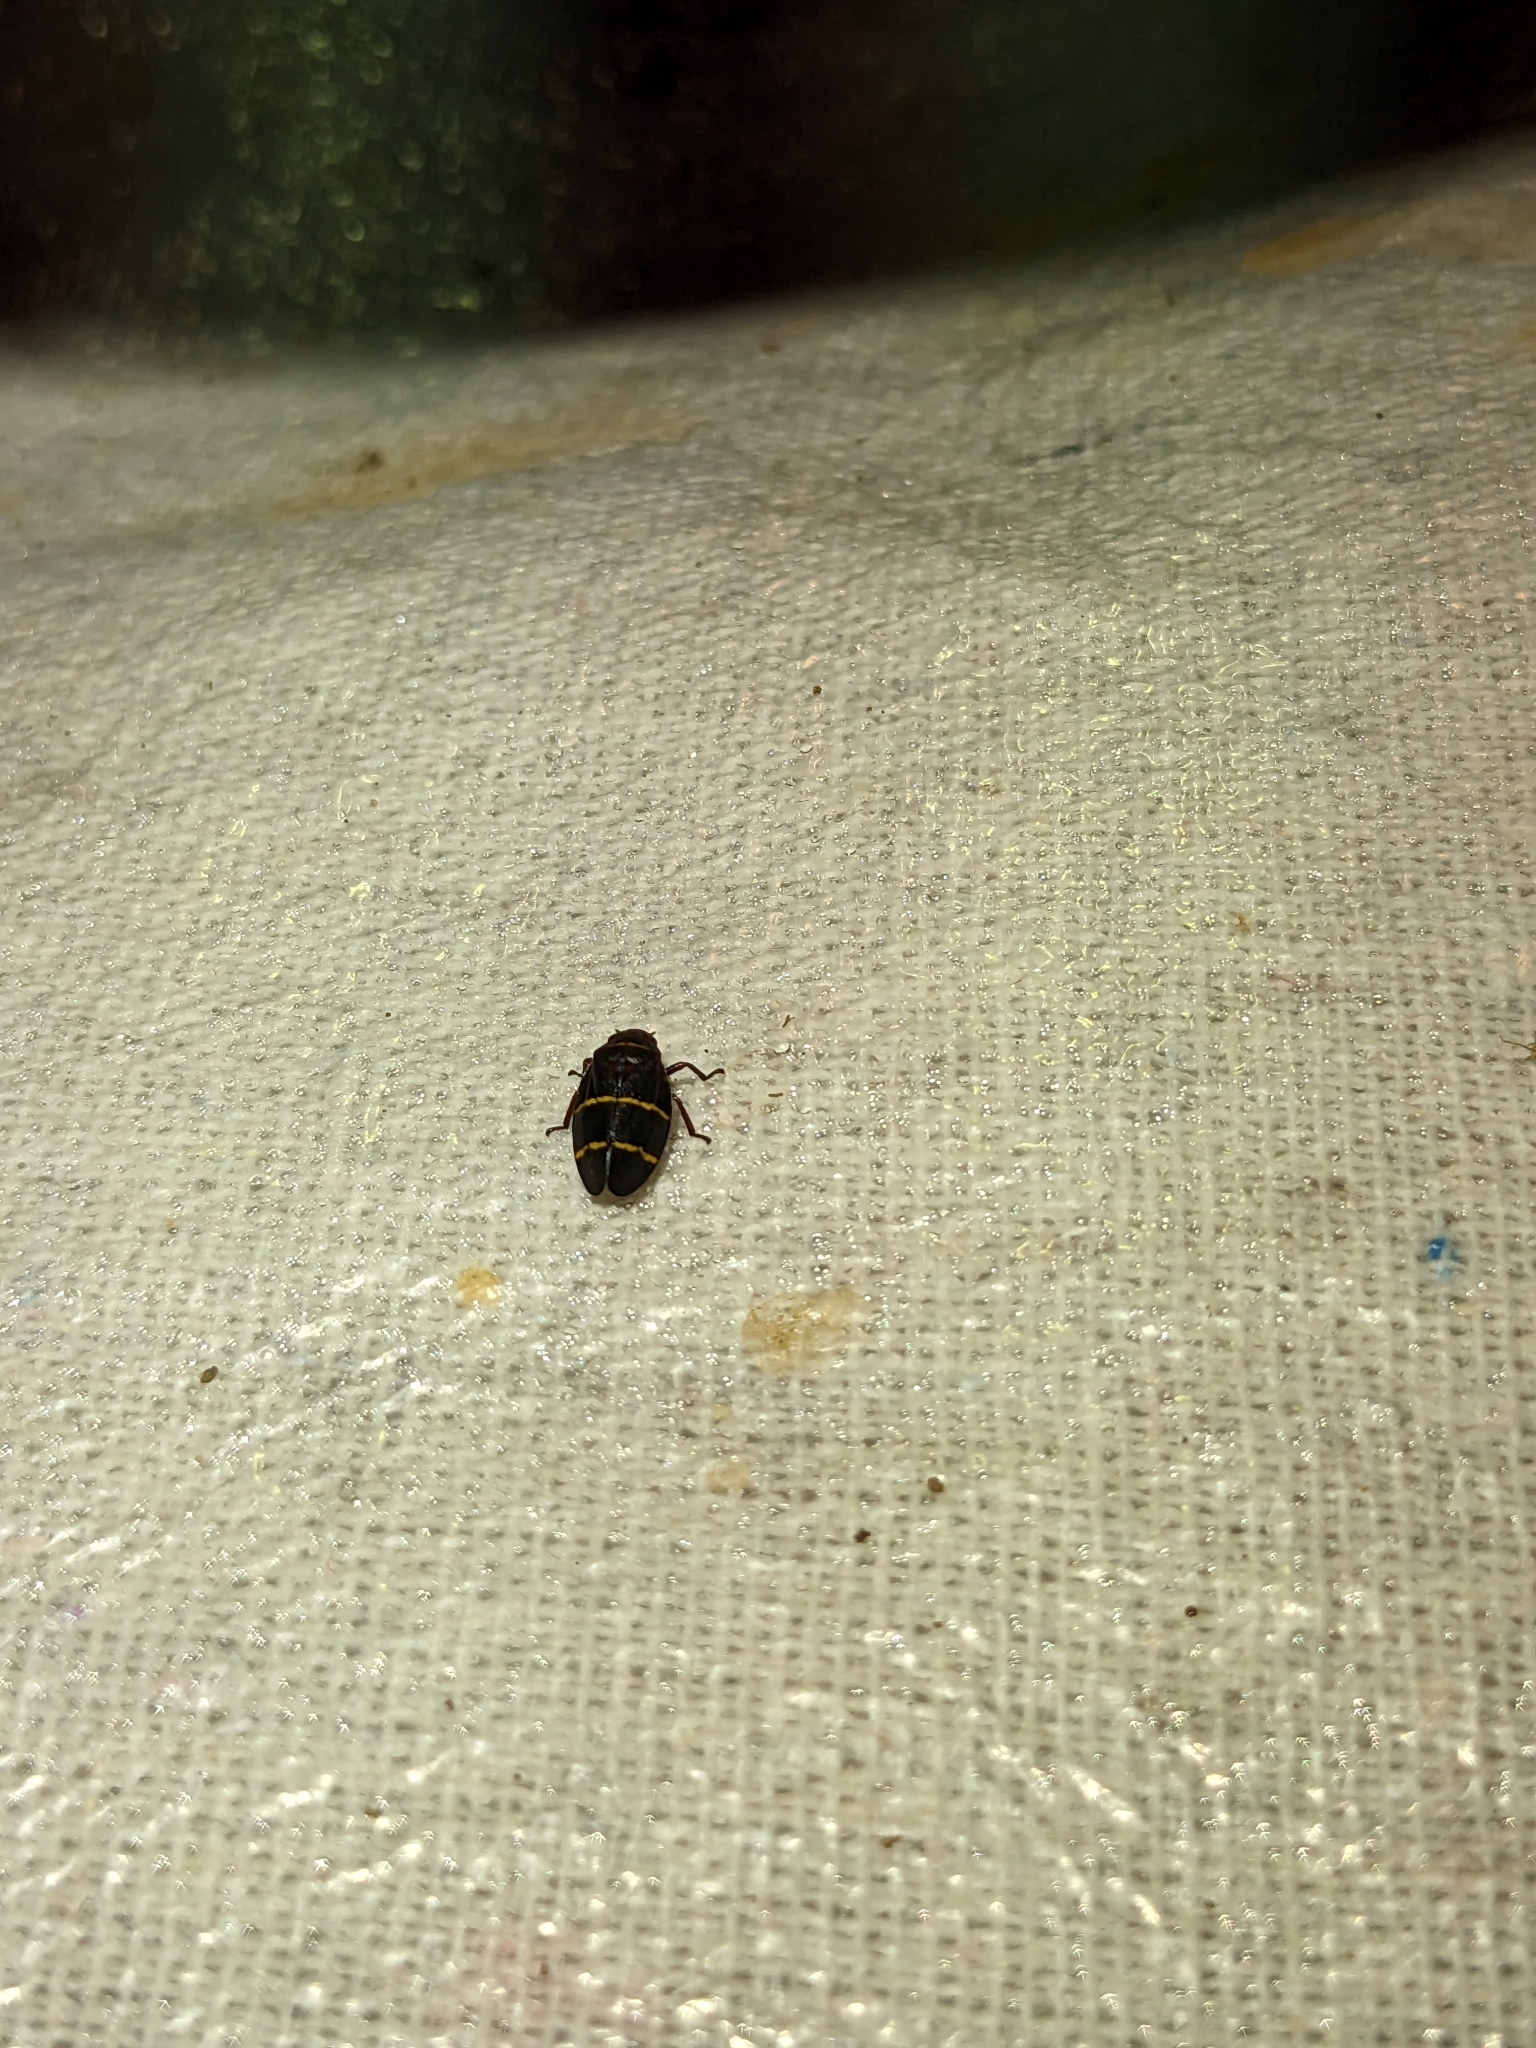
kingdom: Animalia
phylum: Arthropoda
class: Insecta
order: Hemiptera
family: Cercopidae
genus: Prosapia
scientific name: Prosapia bicincta
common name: Twolined spittlebug
